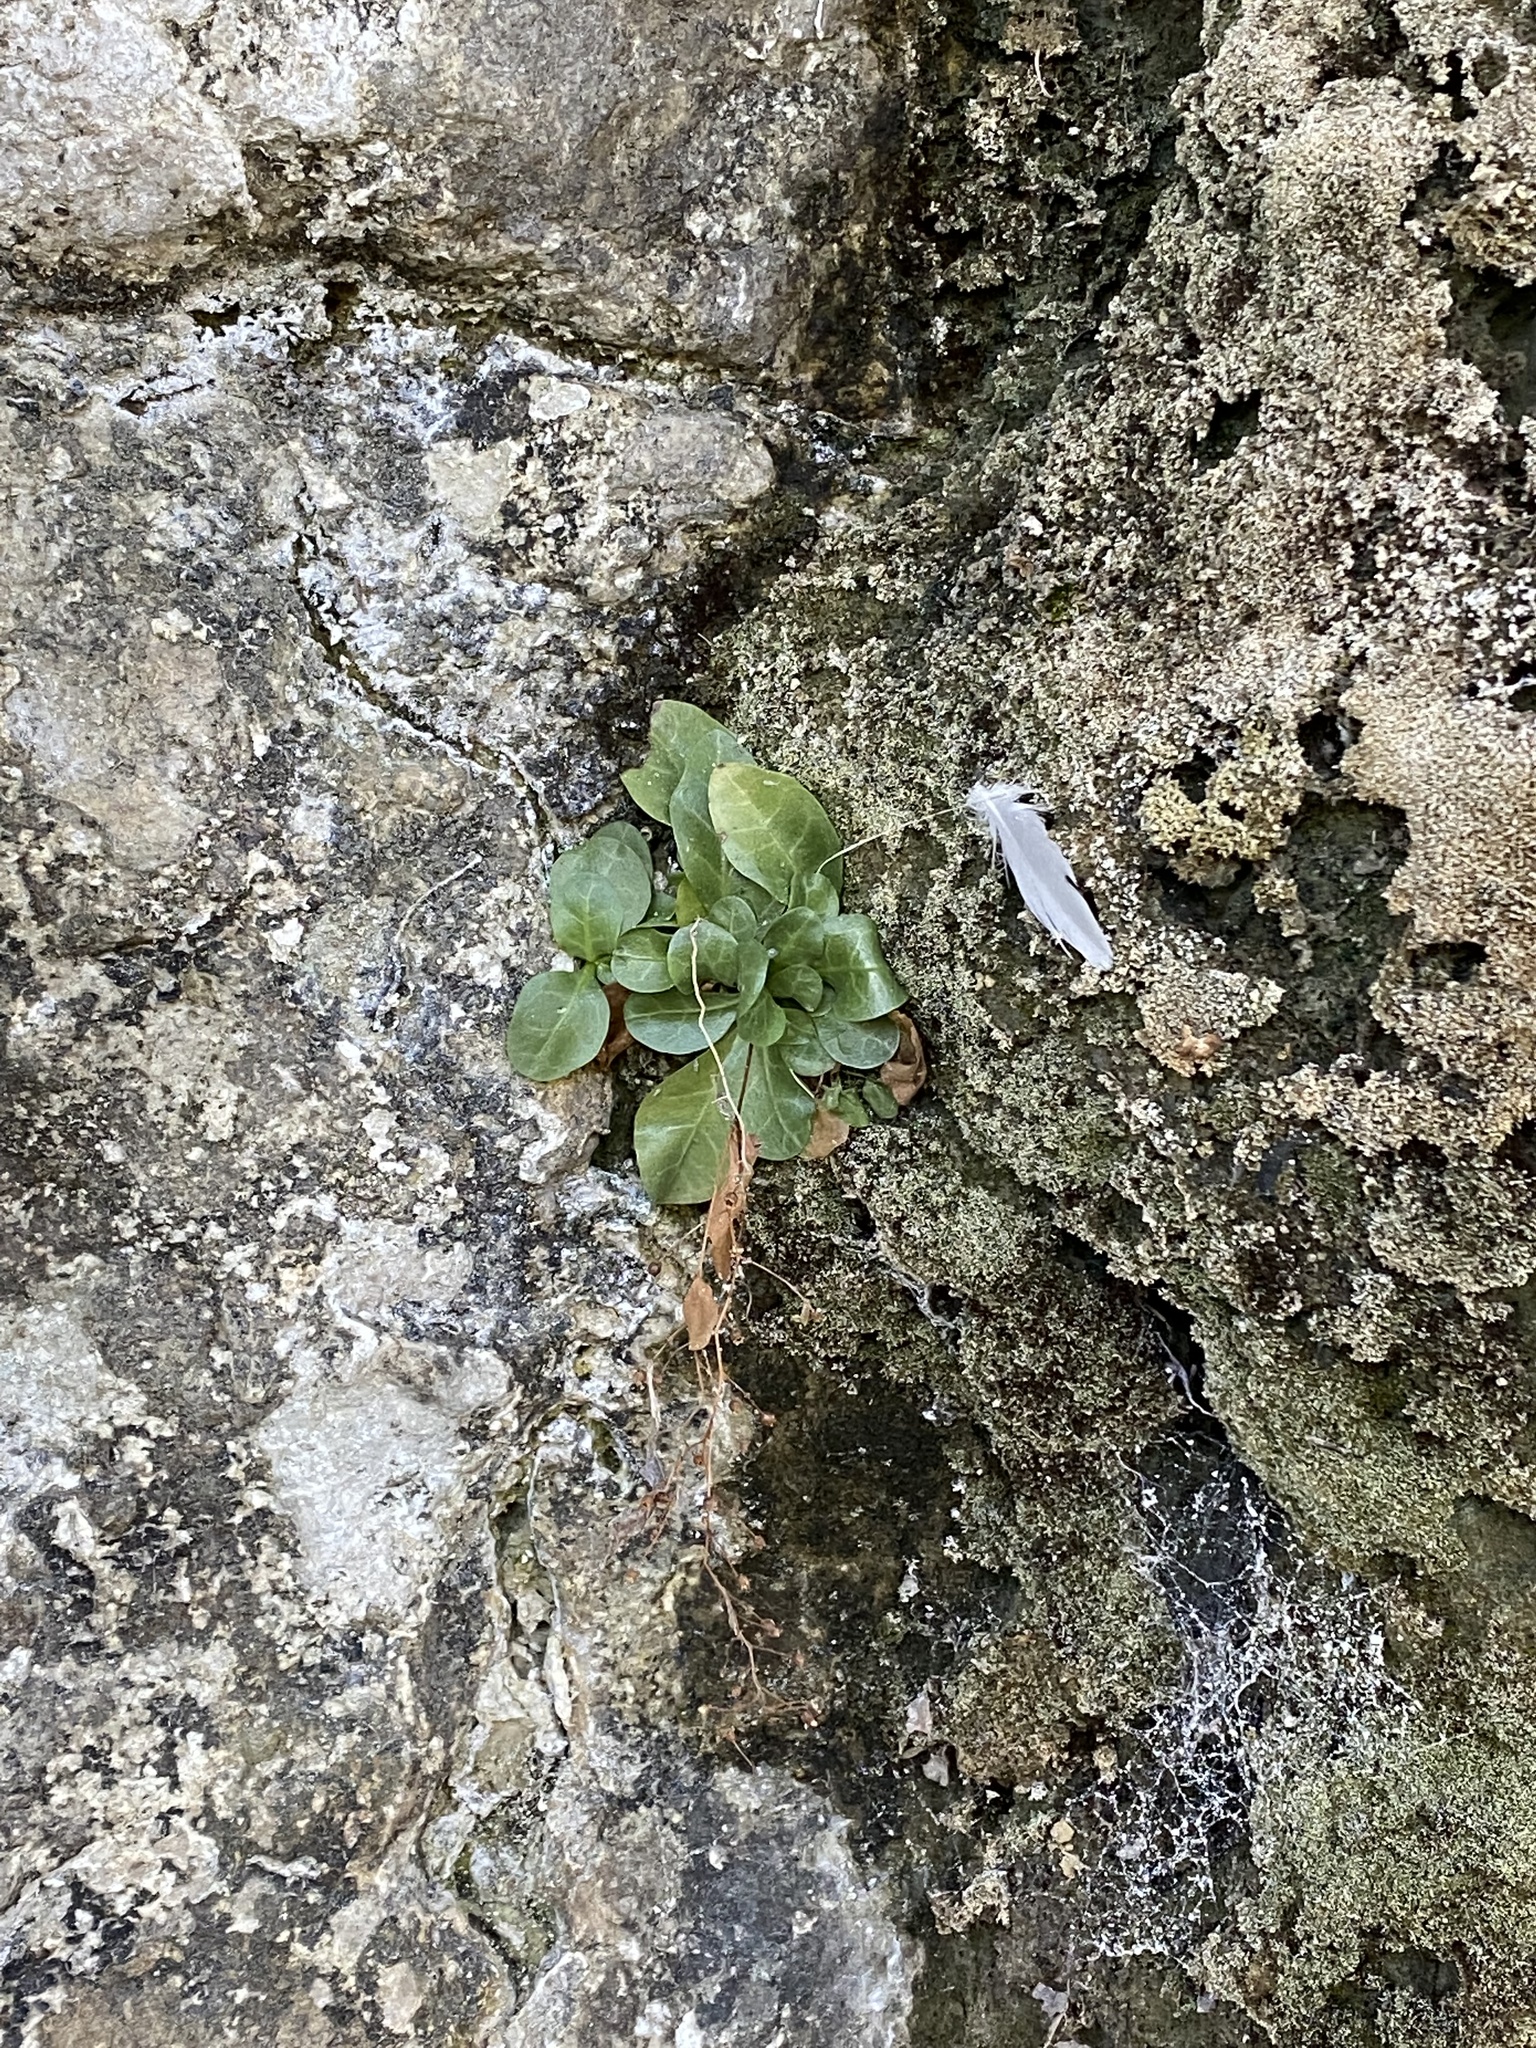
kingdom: Plantae
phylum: Tracheophyta
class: Magnoliopsida
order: Ericales
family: Primulaceae
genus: Samolus
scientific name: Samolus
